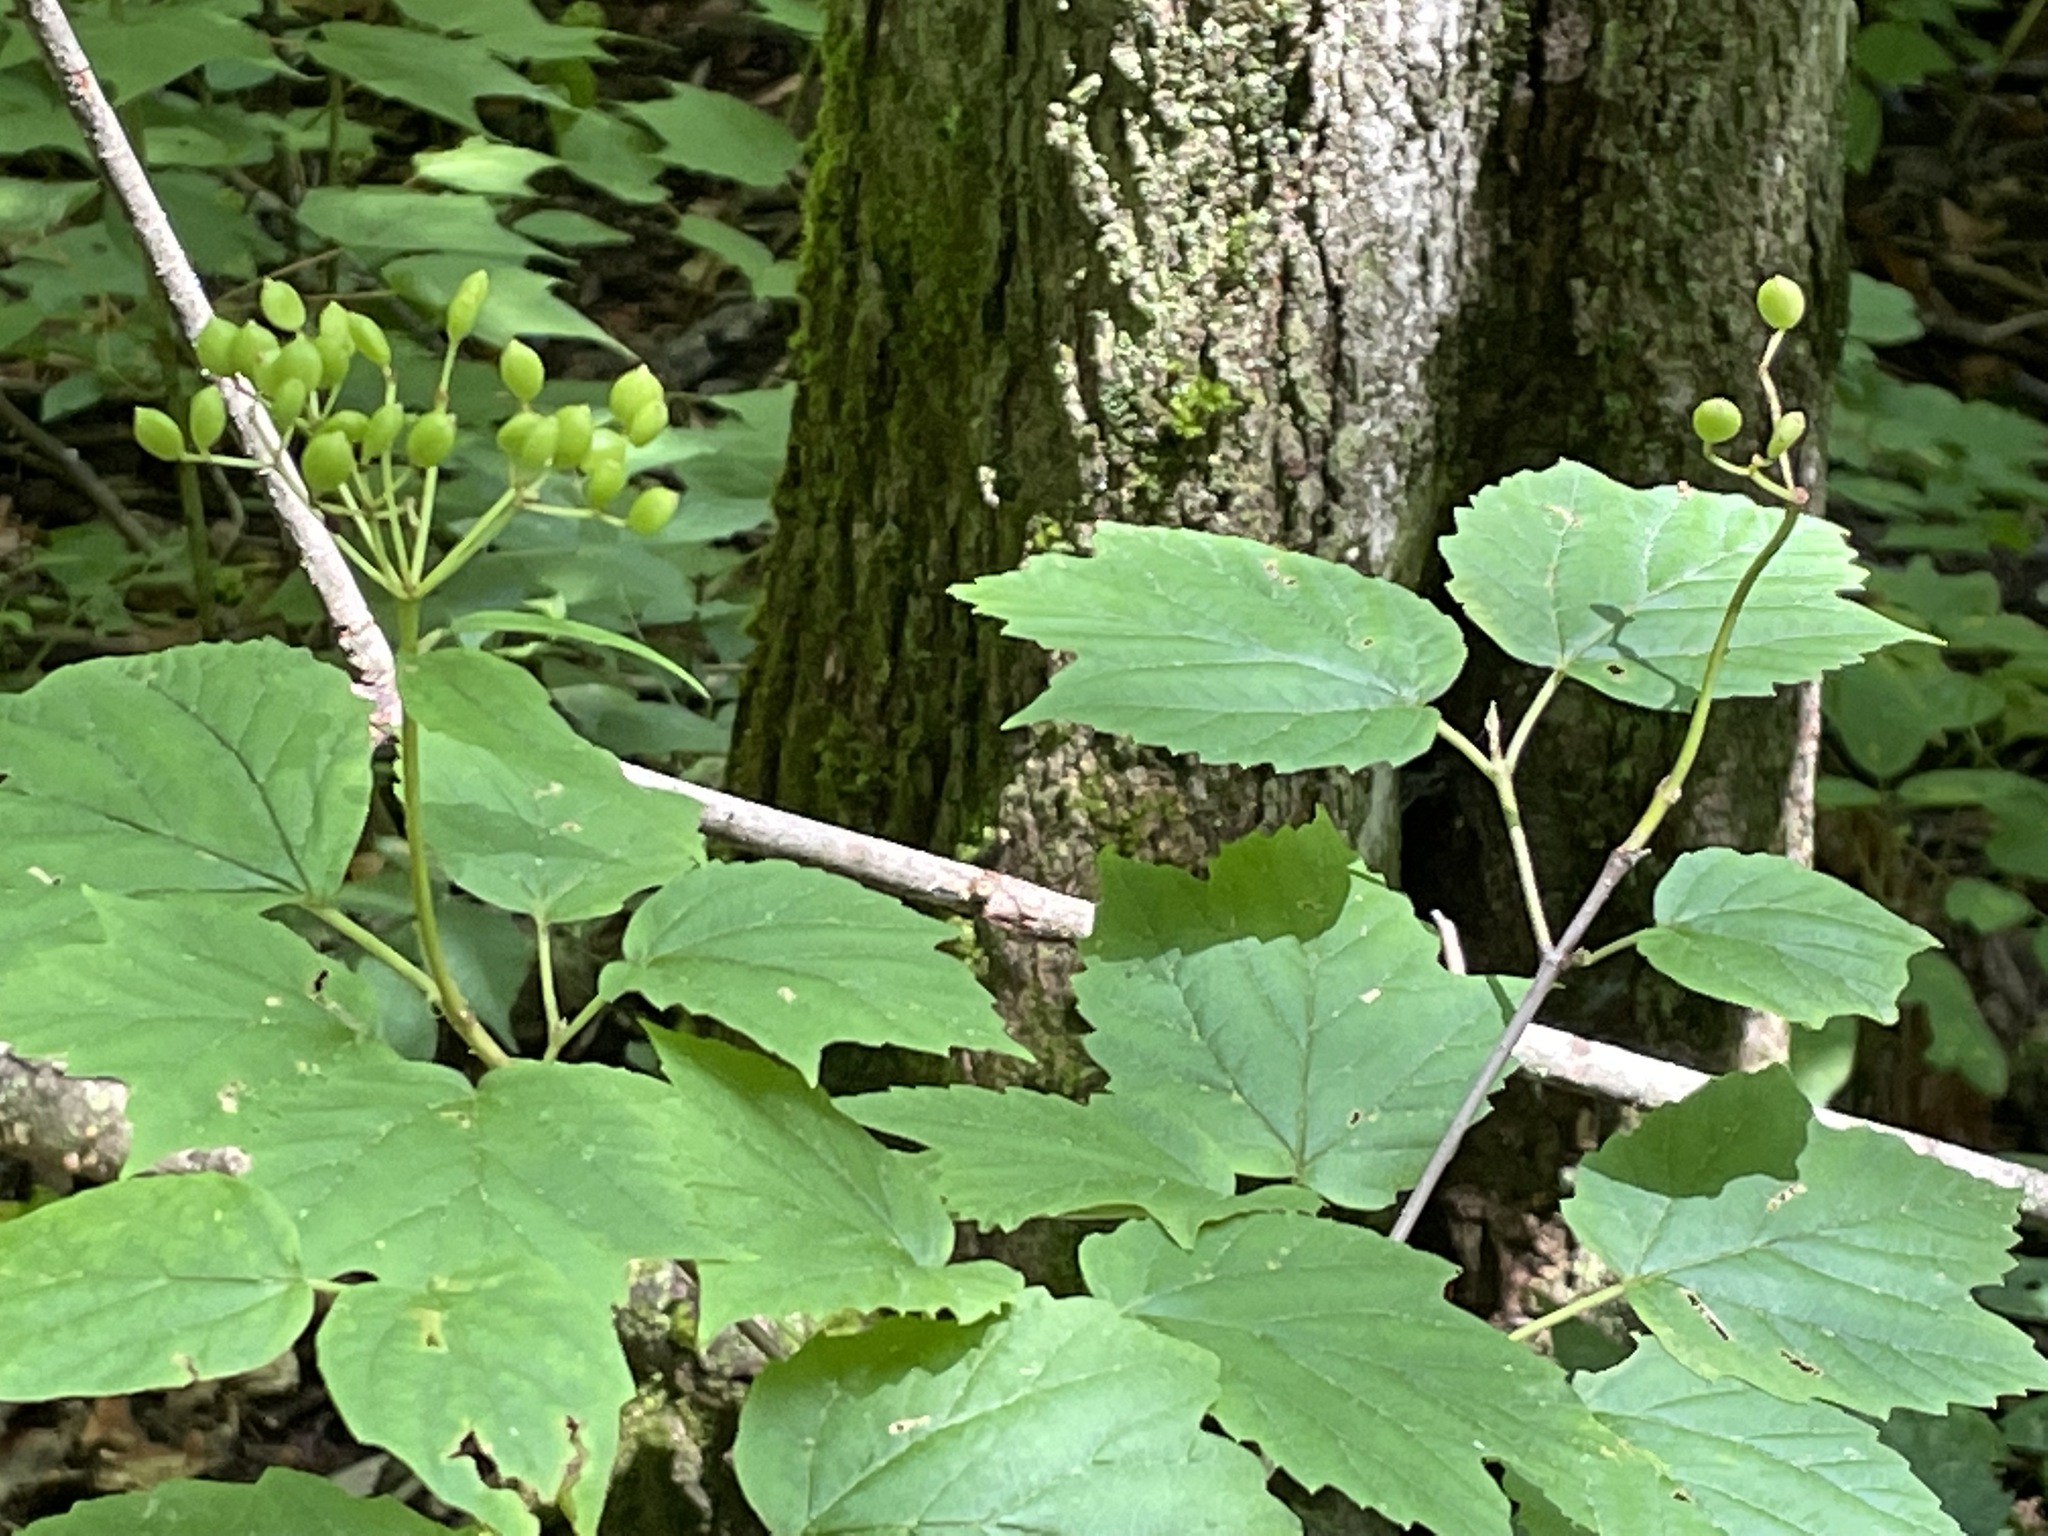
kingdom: Plantae
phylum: Tracheophyta
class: Magnoliopsida
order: Dipsacales
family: Viburnaceae
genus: Viburnum
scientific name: Viburnum acerifolium
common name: Dockmackie
